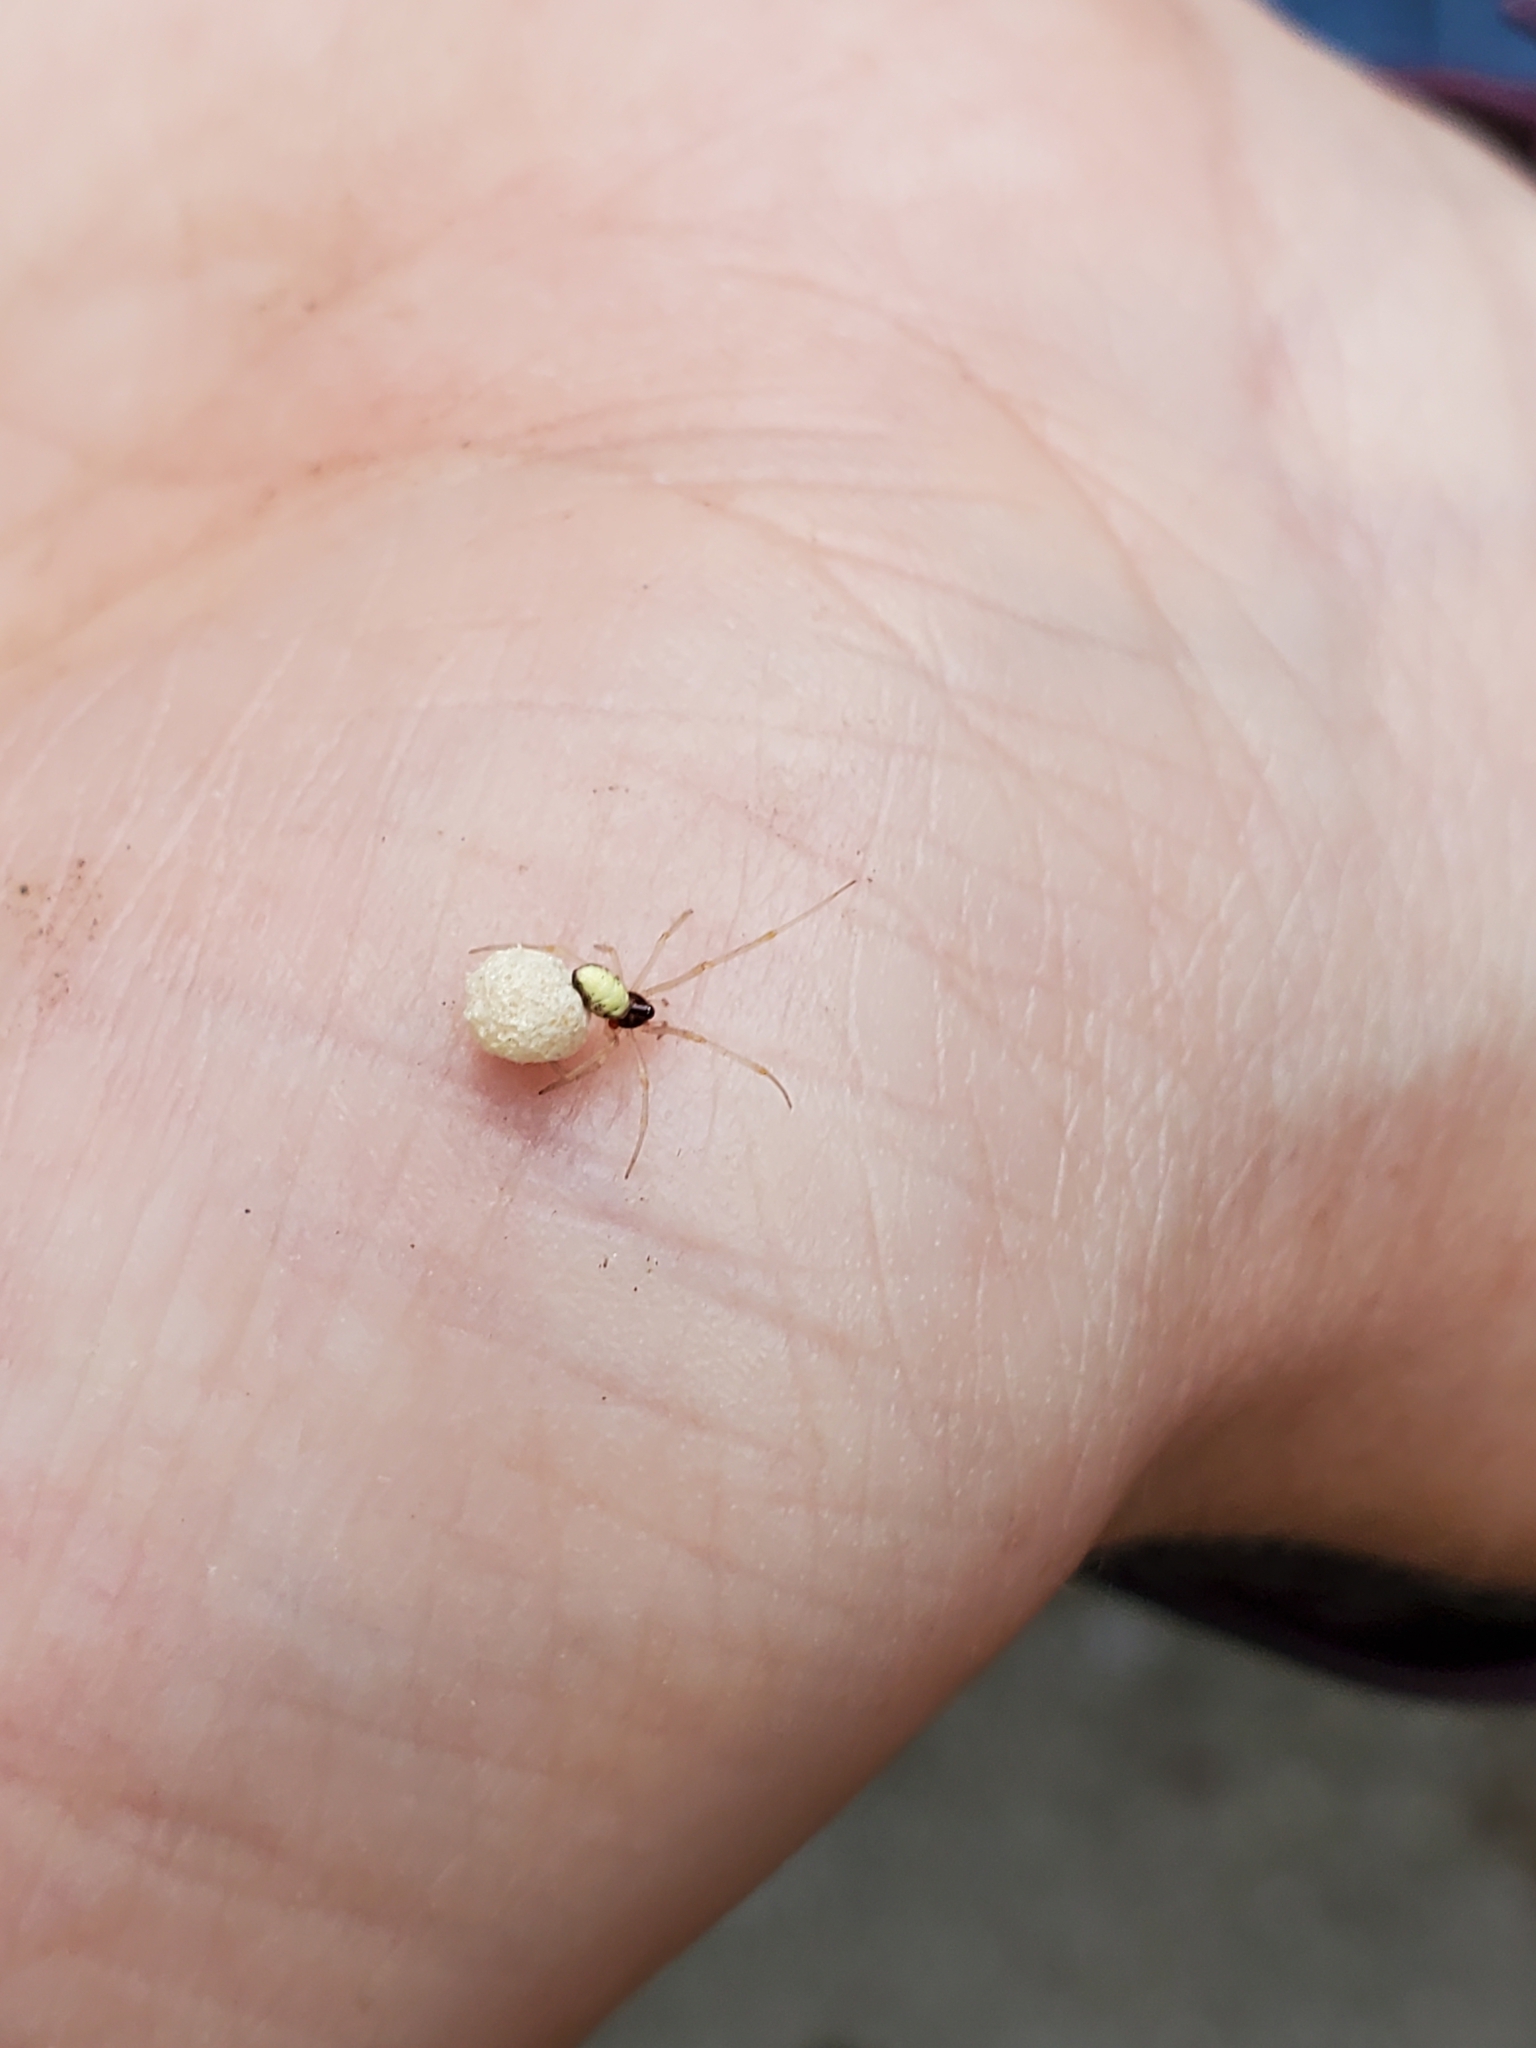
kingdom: Animalia
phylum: Arthropoda
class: Arachnida
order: Araneae
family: Theridiidae
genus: Neottiura
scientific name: Neottiura bimaculata
